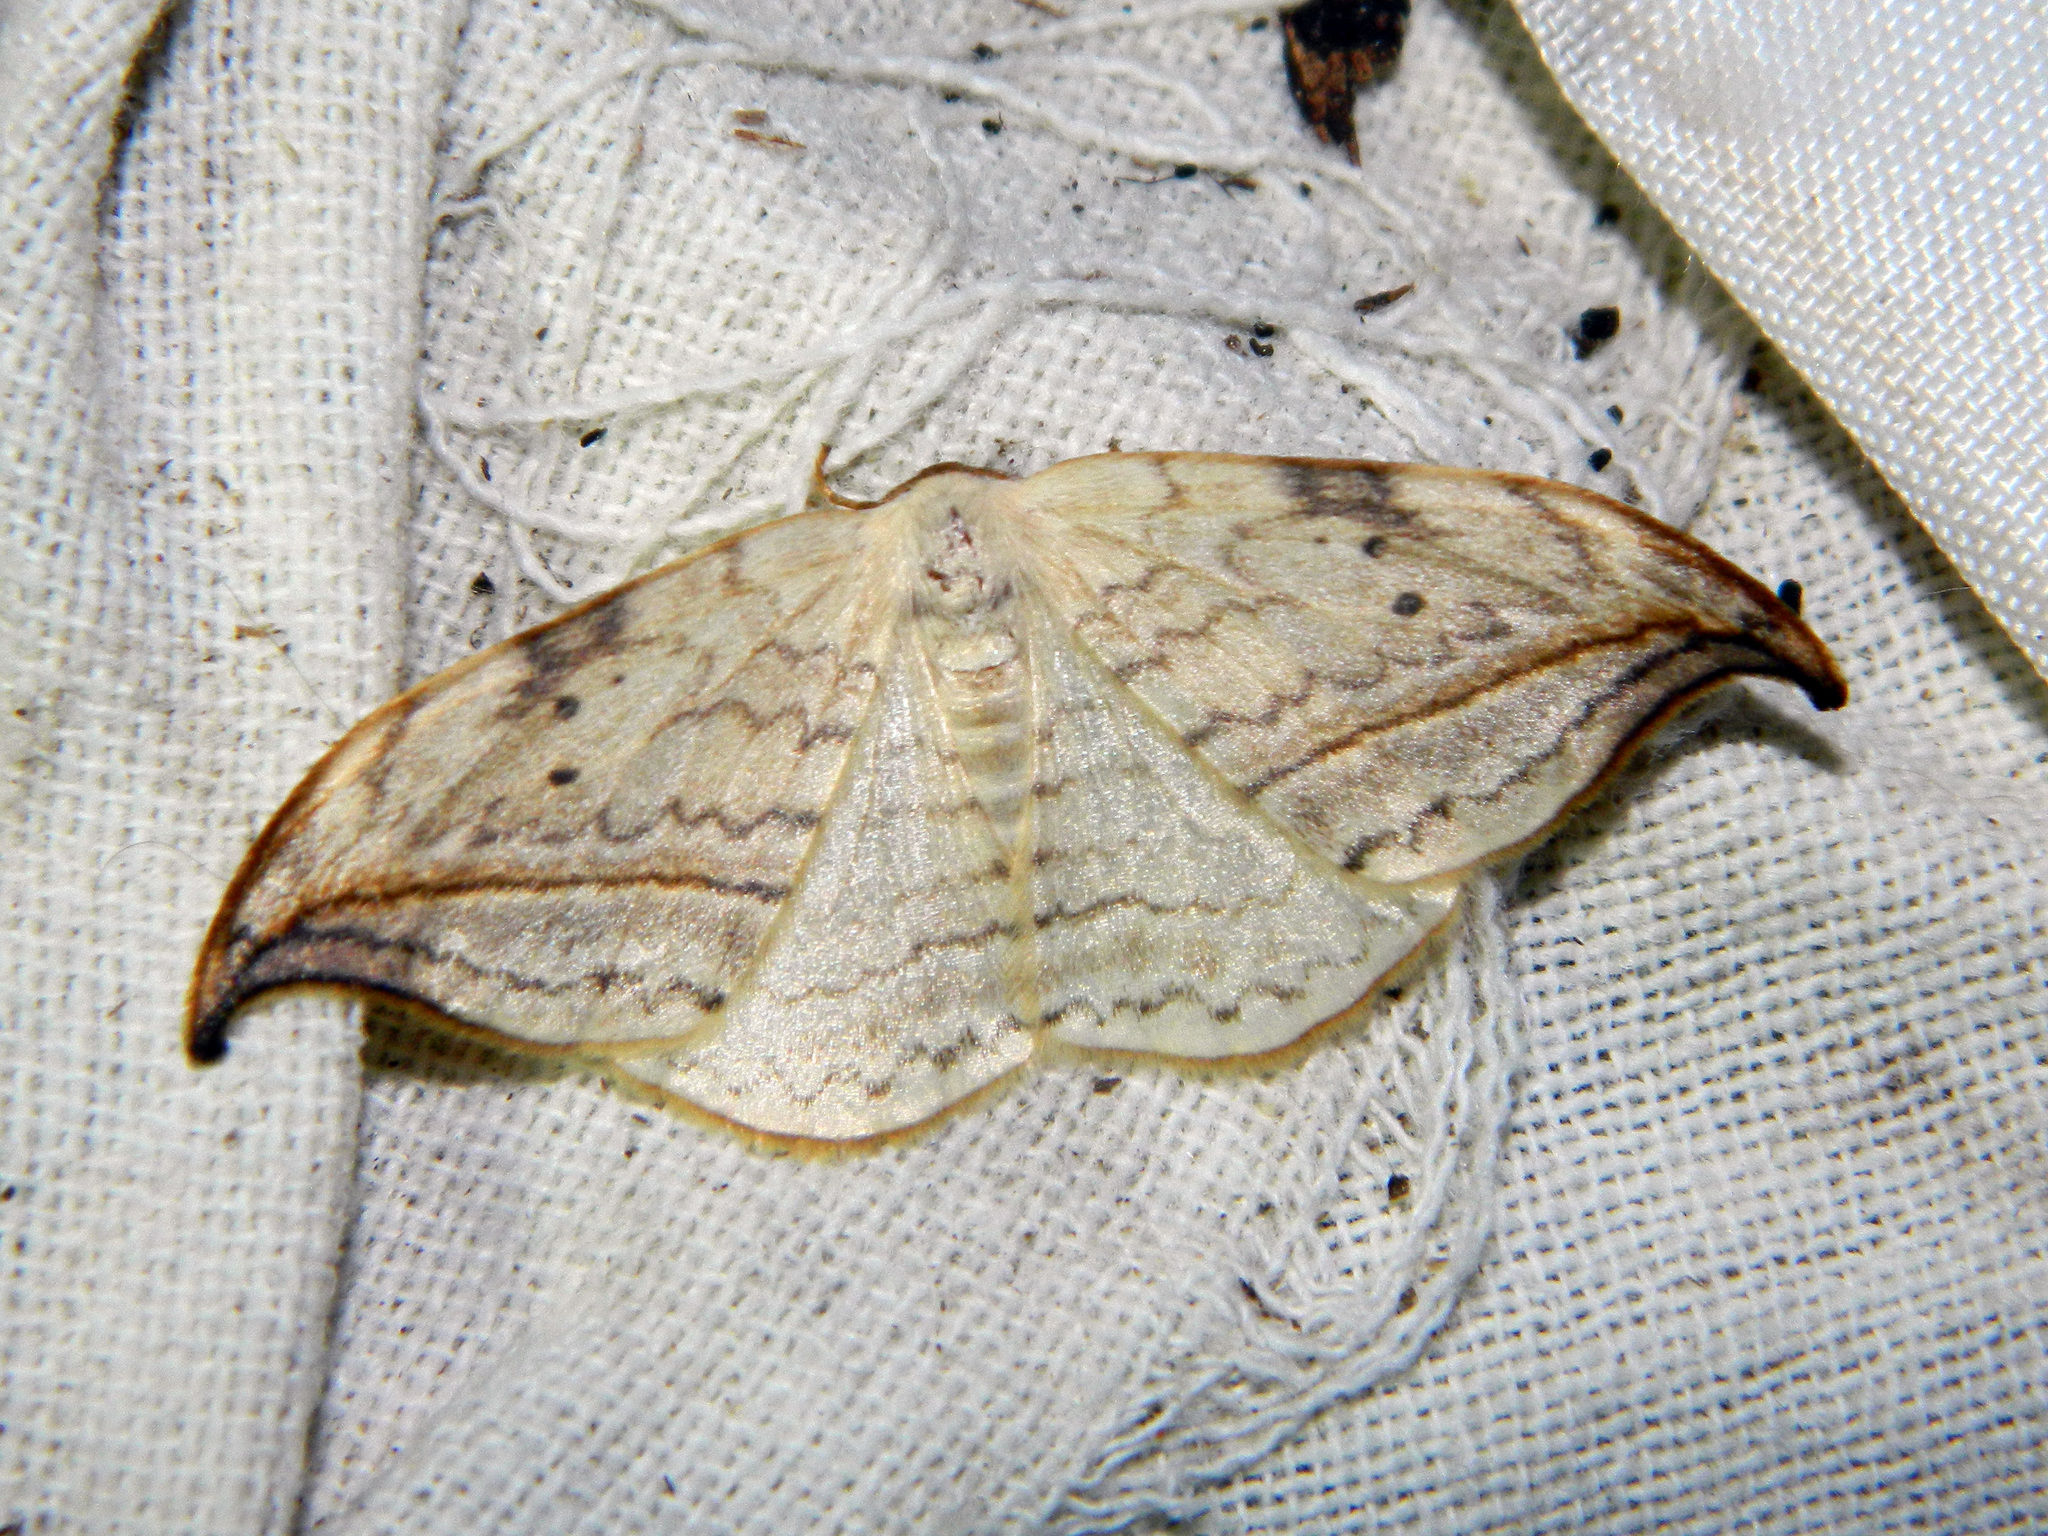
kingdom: Animalia
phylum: Arthropoda
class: Insecta
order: Lepidoptera
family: Drepanidae
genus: Drepana
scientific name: Drepana arcuata
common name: Arched hooktip moth
